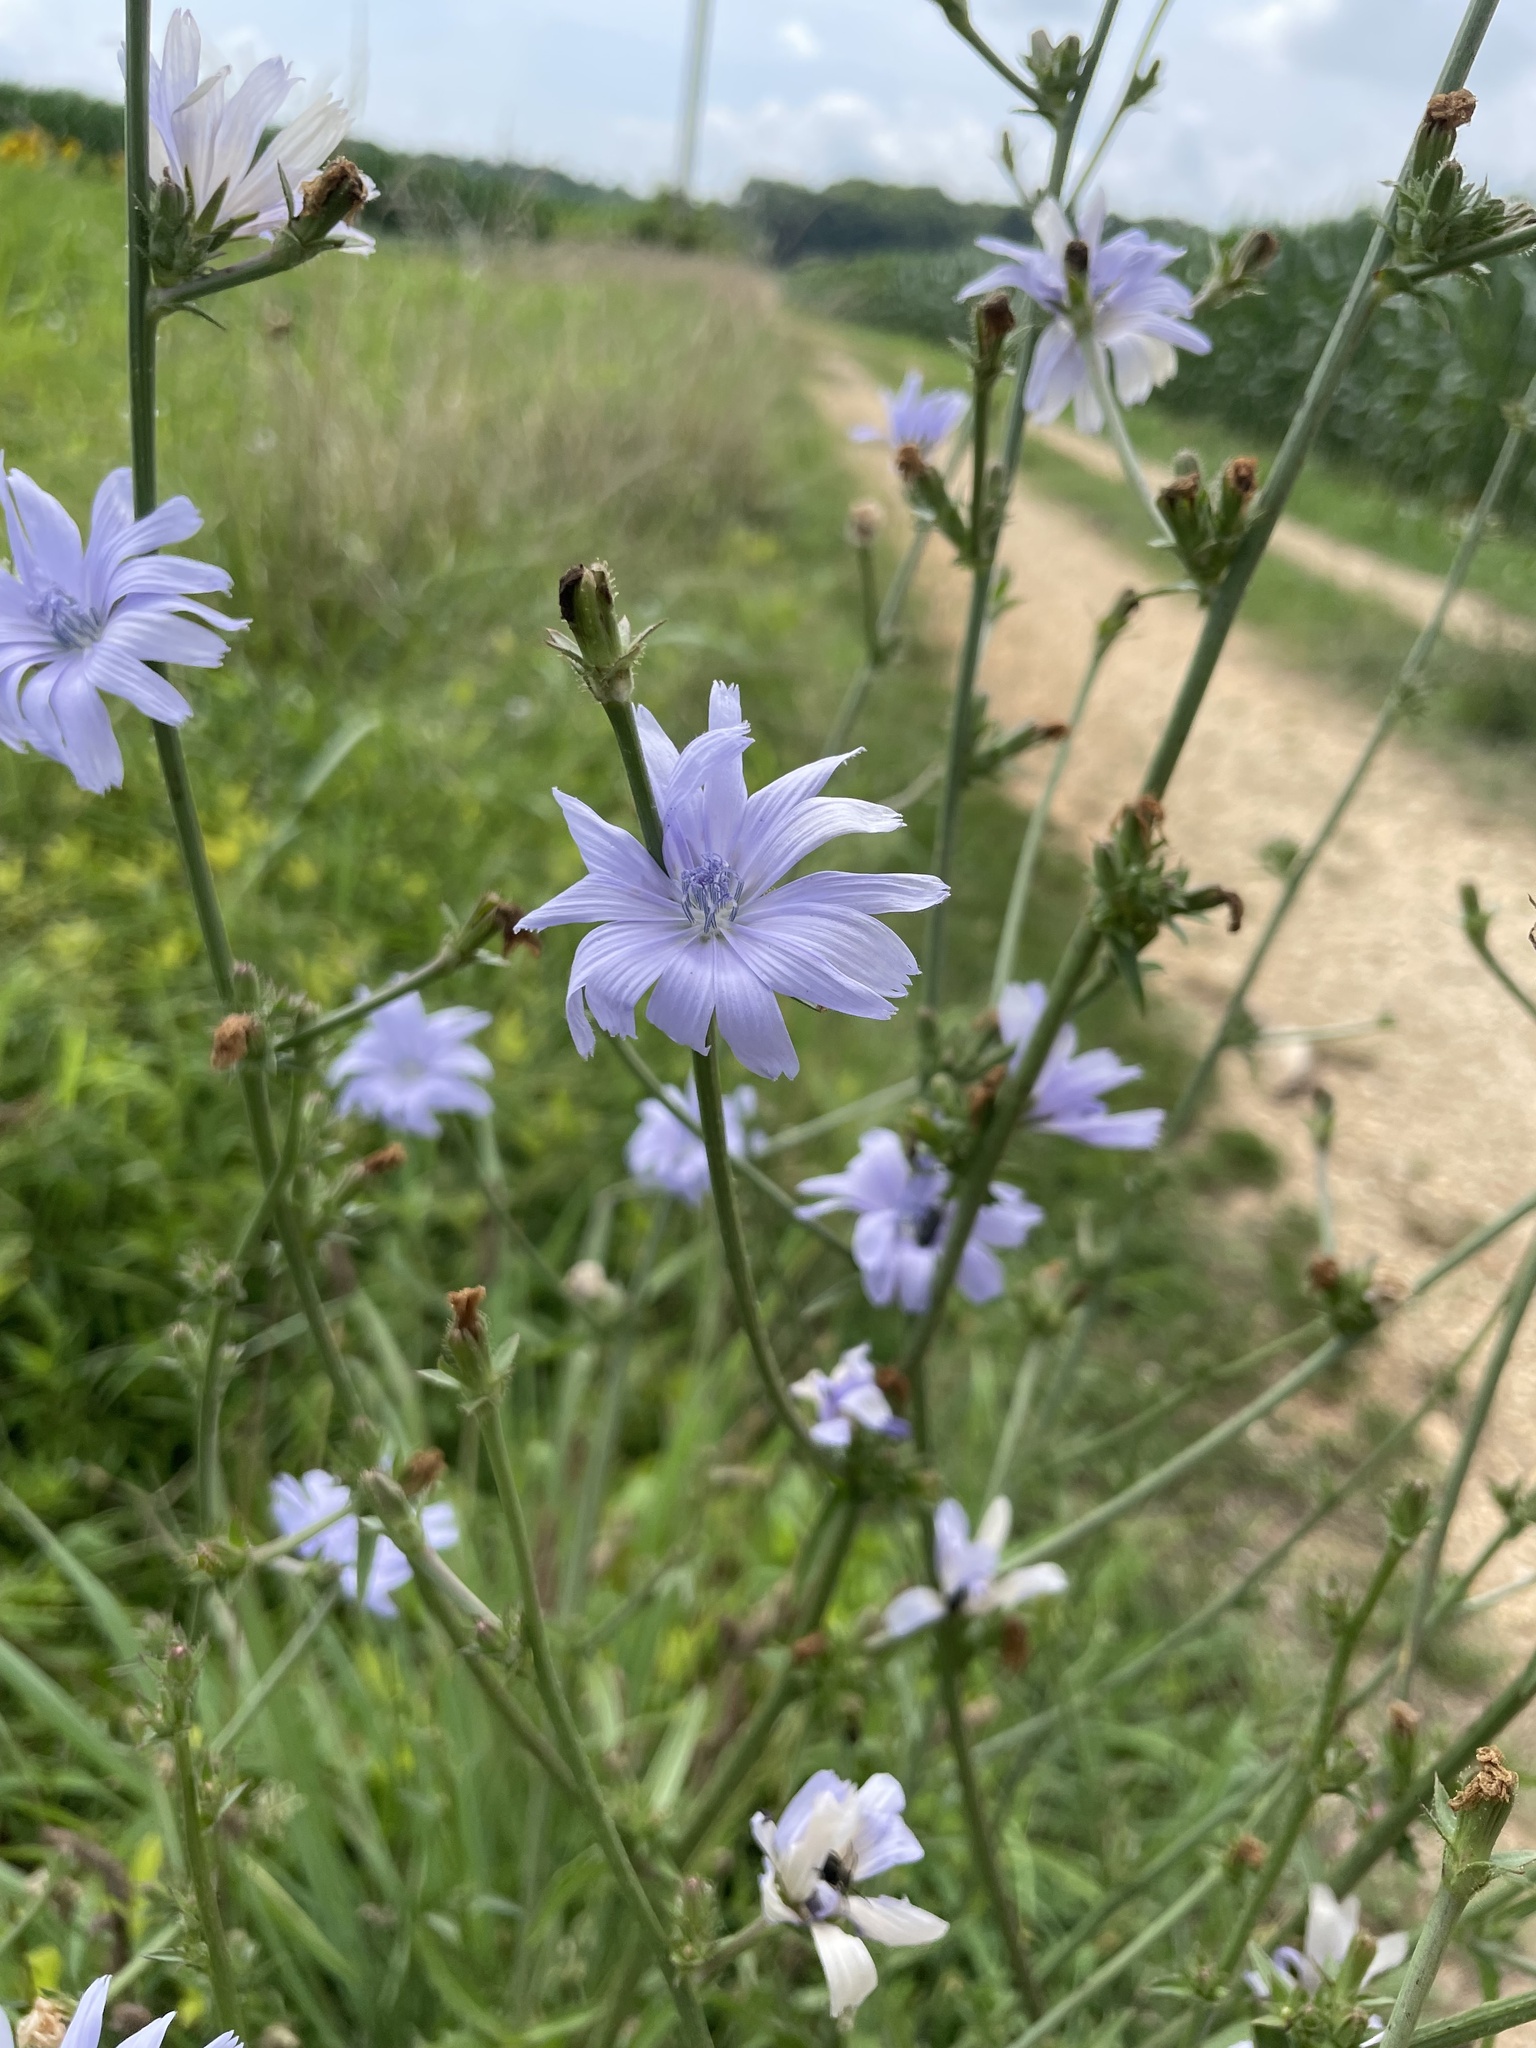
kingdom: Plantae
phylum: Tracheophyta
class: Magnoliopsida
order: Asterales
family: Asteraceae
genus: Cichorium
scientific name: Cichorium intybus
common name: Chicory
